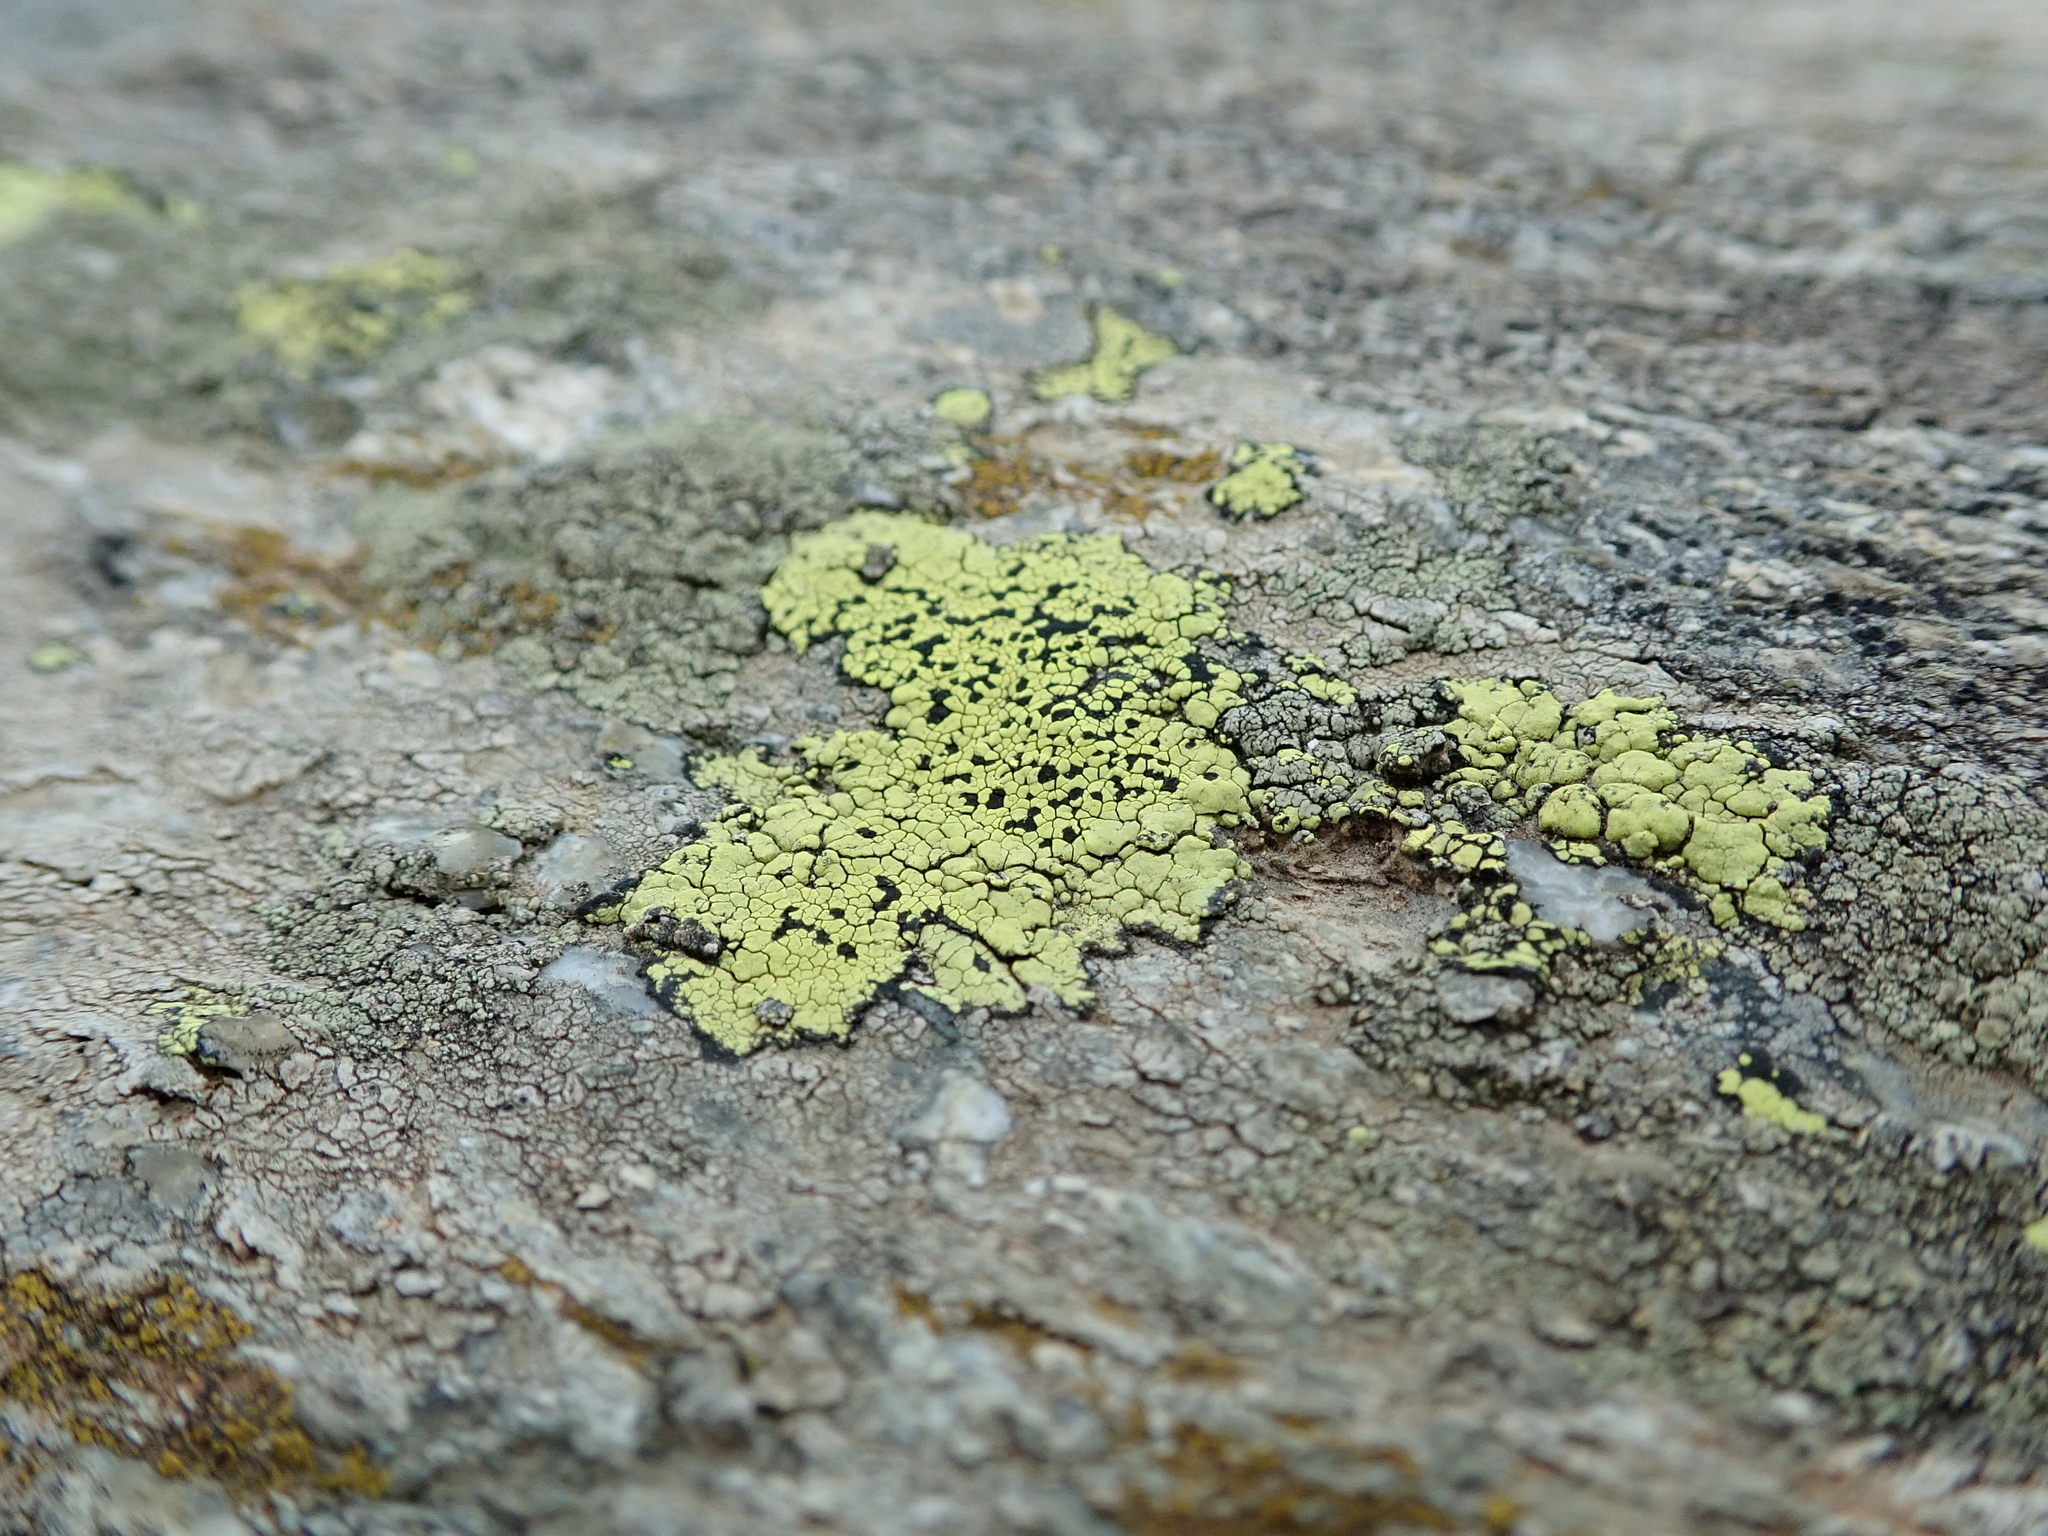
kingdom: Fungi
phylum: Ascomycota
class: Lecanoromycetes
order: Rhizocarpales
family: Rhizocarpaceae
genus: Rhizocarpon
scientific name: Rhizocarpon geographicum
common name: Yellow map lichen
